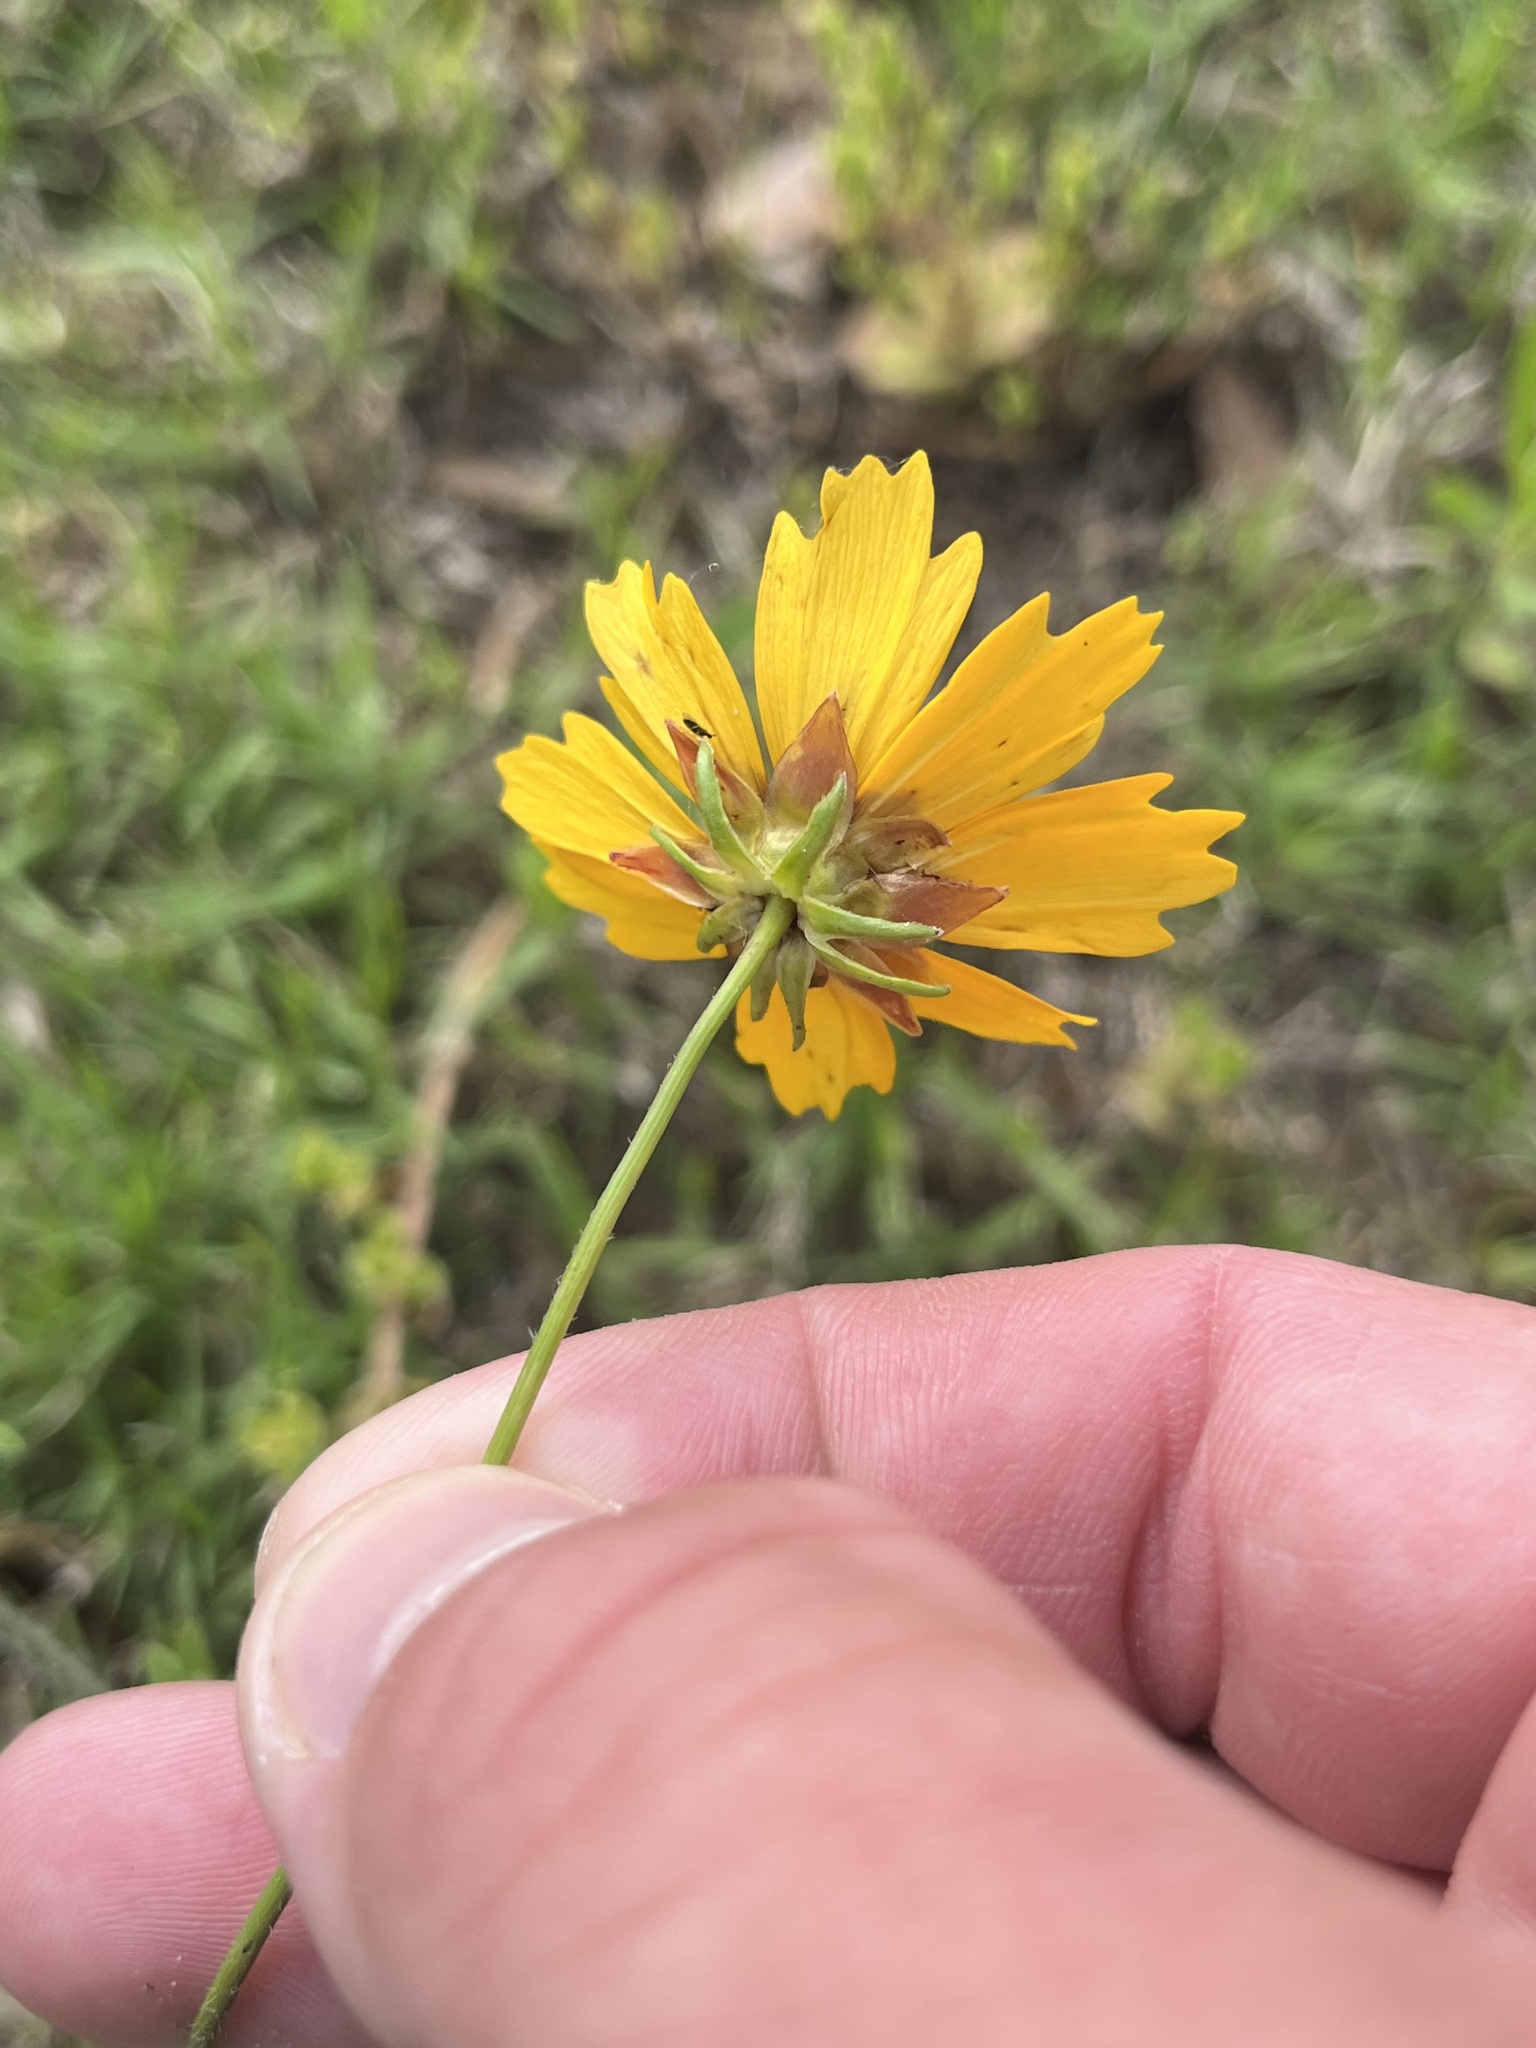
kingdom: Plantae
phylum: Tracheophyta
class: Magnoliopsida
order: Asterales
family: Asteraceae
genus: Coreopsis
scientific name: Coreopsis basalis
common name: Golden-mane coreopsis
